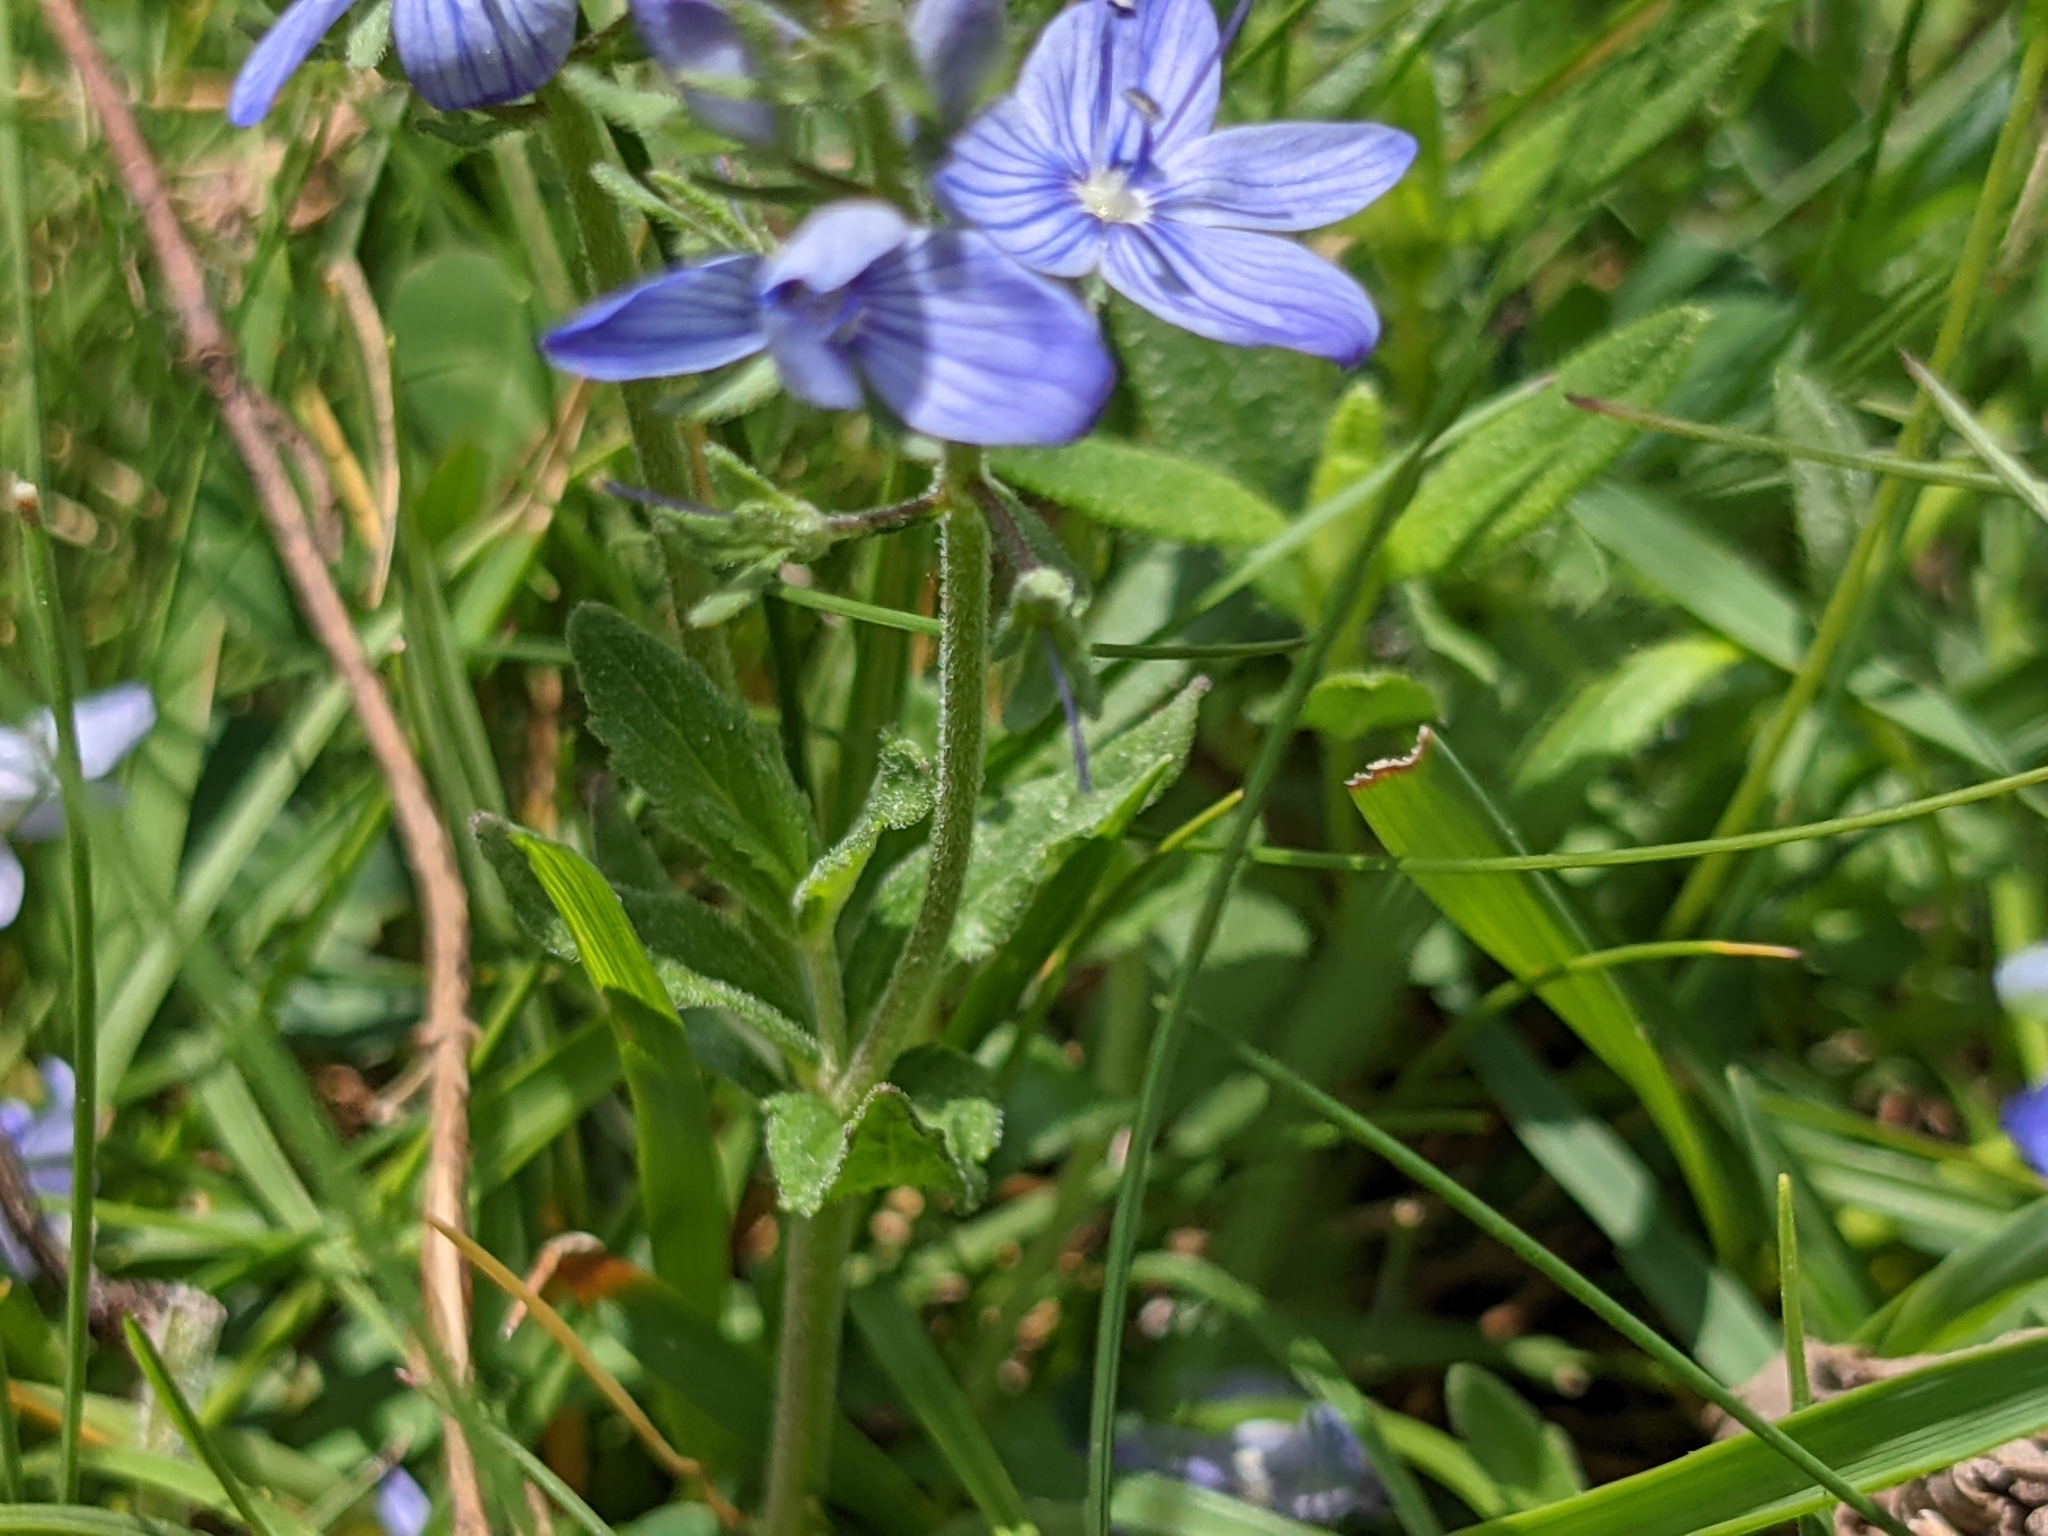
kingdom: Plantae
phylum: Tracheophyta
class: Magnoliopsida
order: Lamiales
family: Plantaginaceae
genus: Veronica
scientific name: Veronica orsiniana
